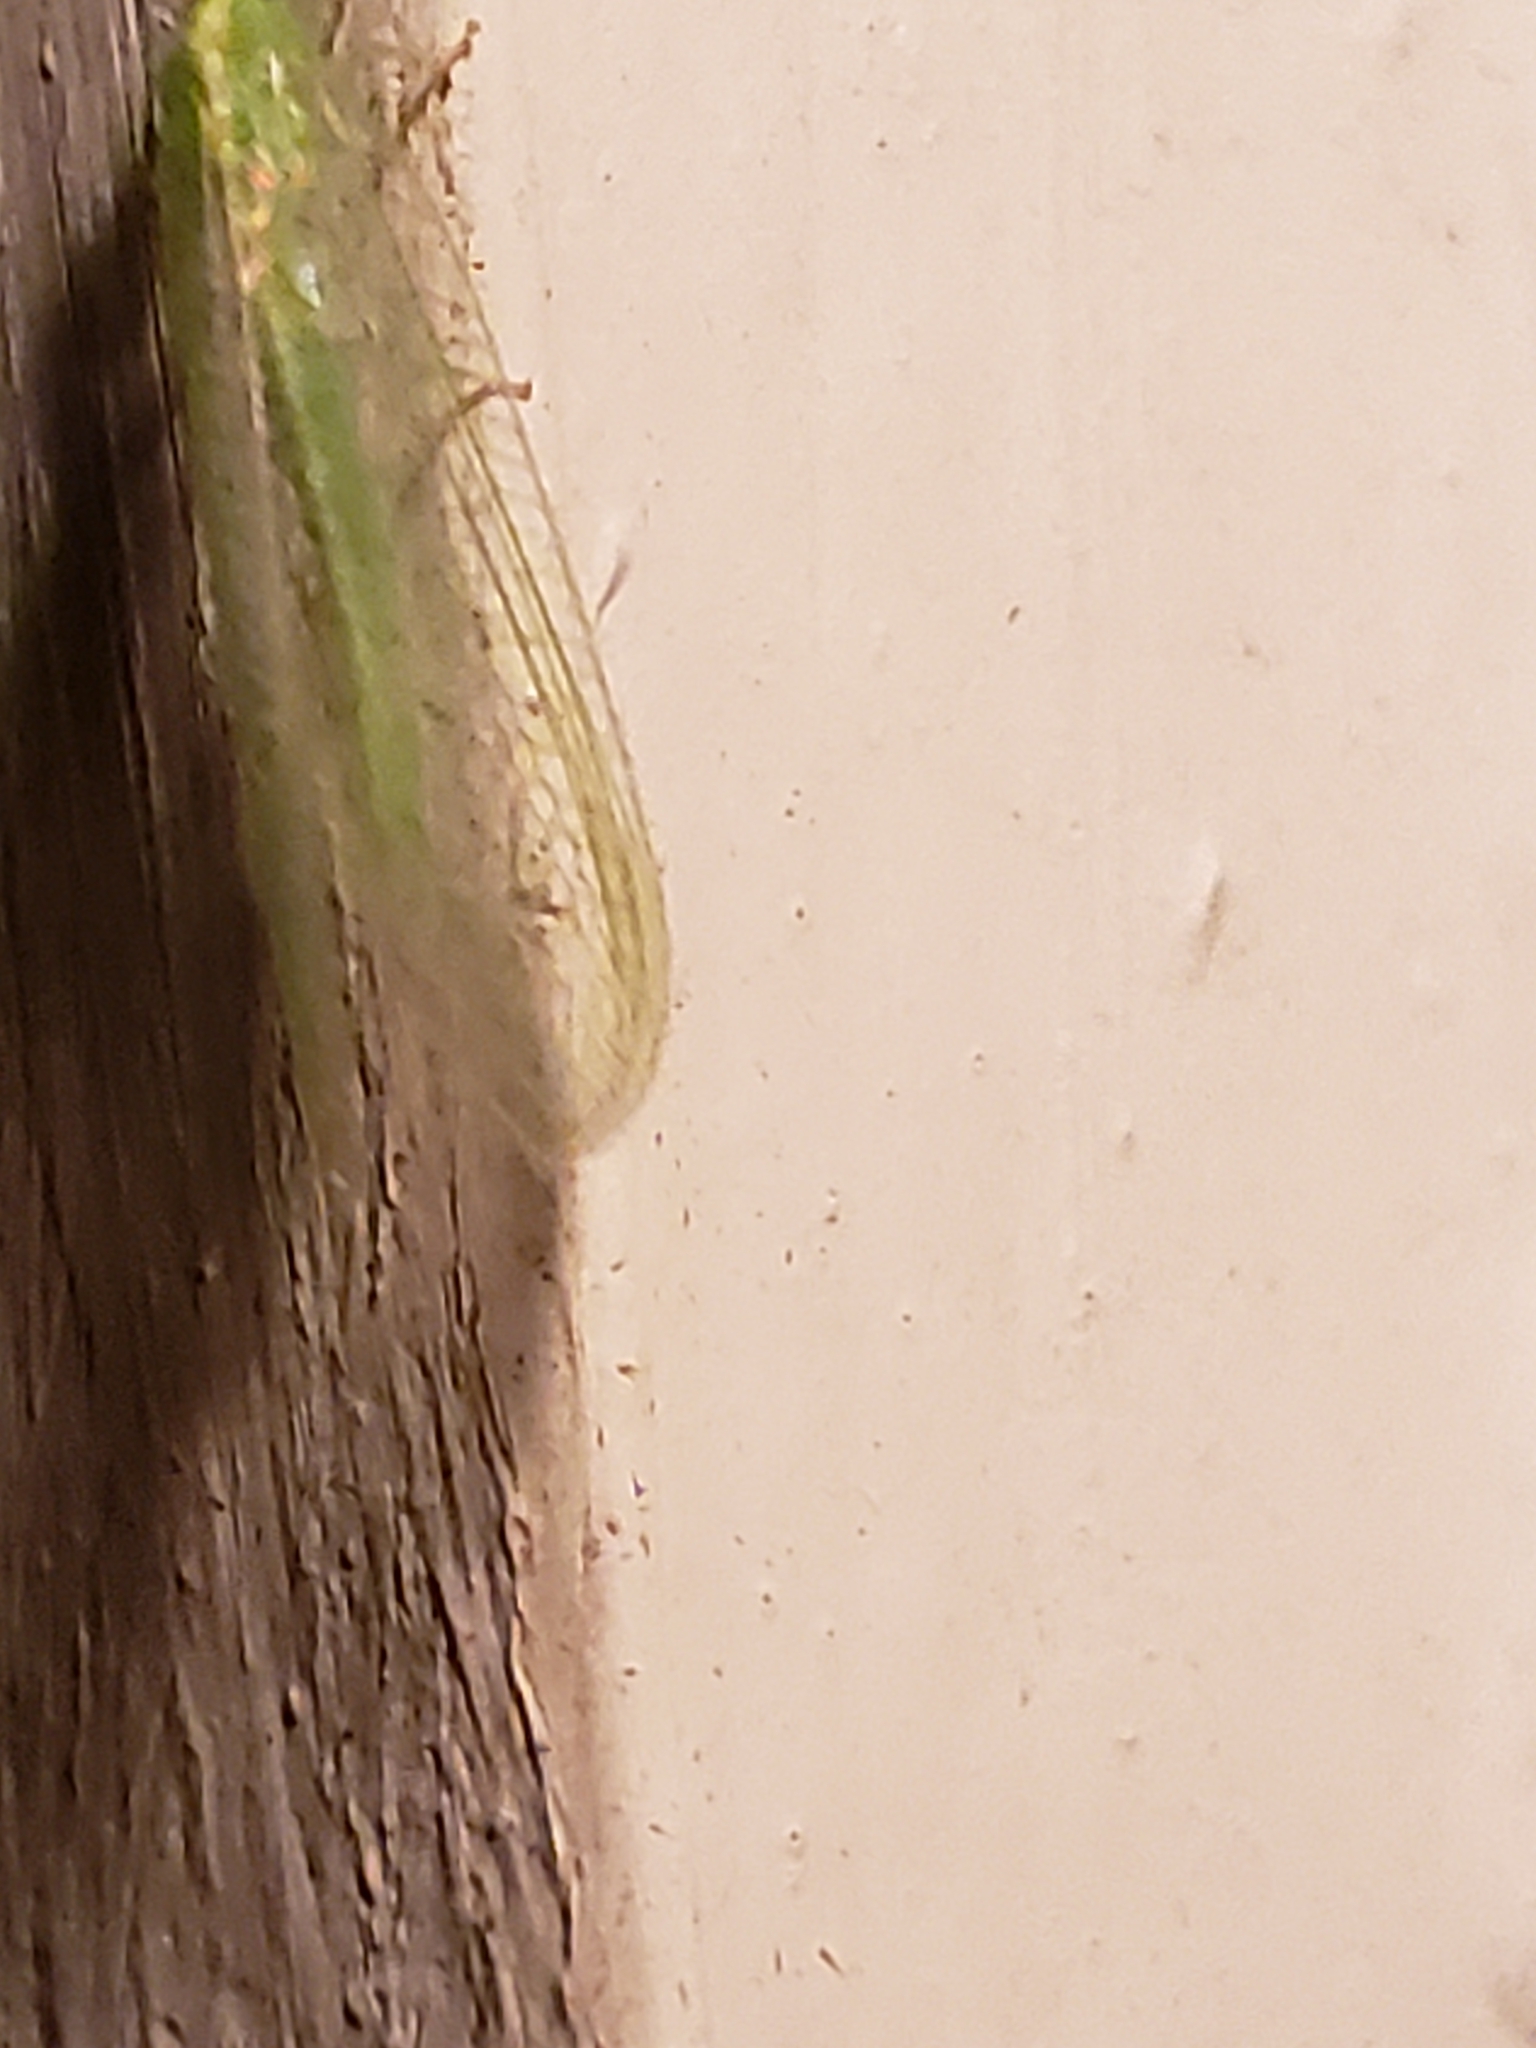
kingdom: Animalia
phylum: Arthropoda
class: Insecta
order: Neuroptera
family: Chrysopidae
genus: Chrysoperla
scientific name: Chrysoperla
